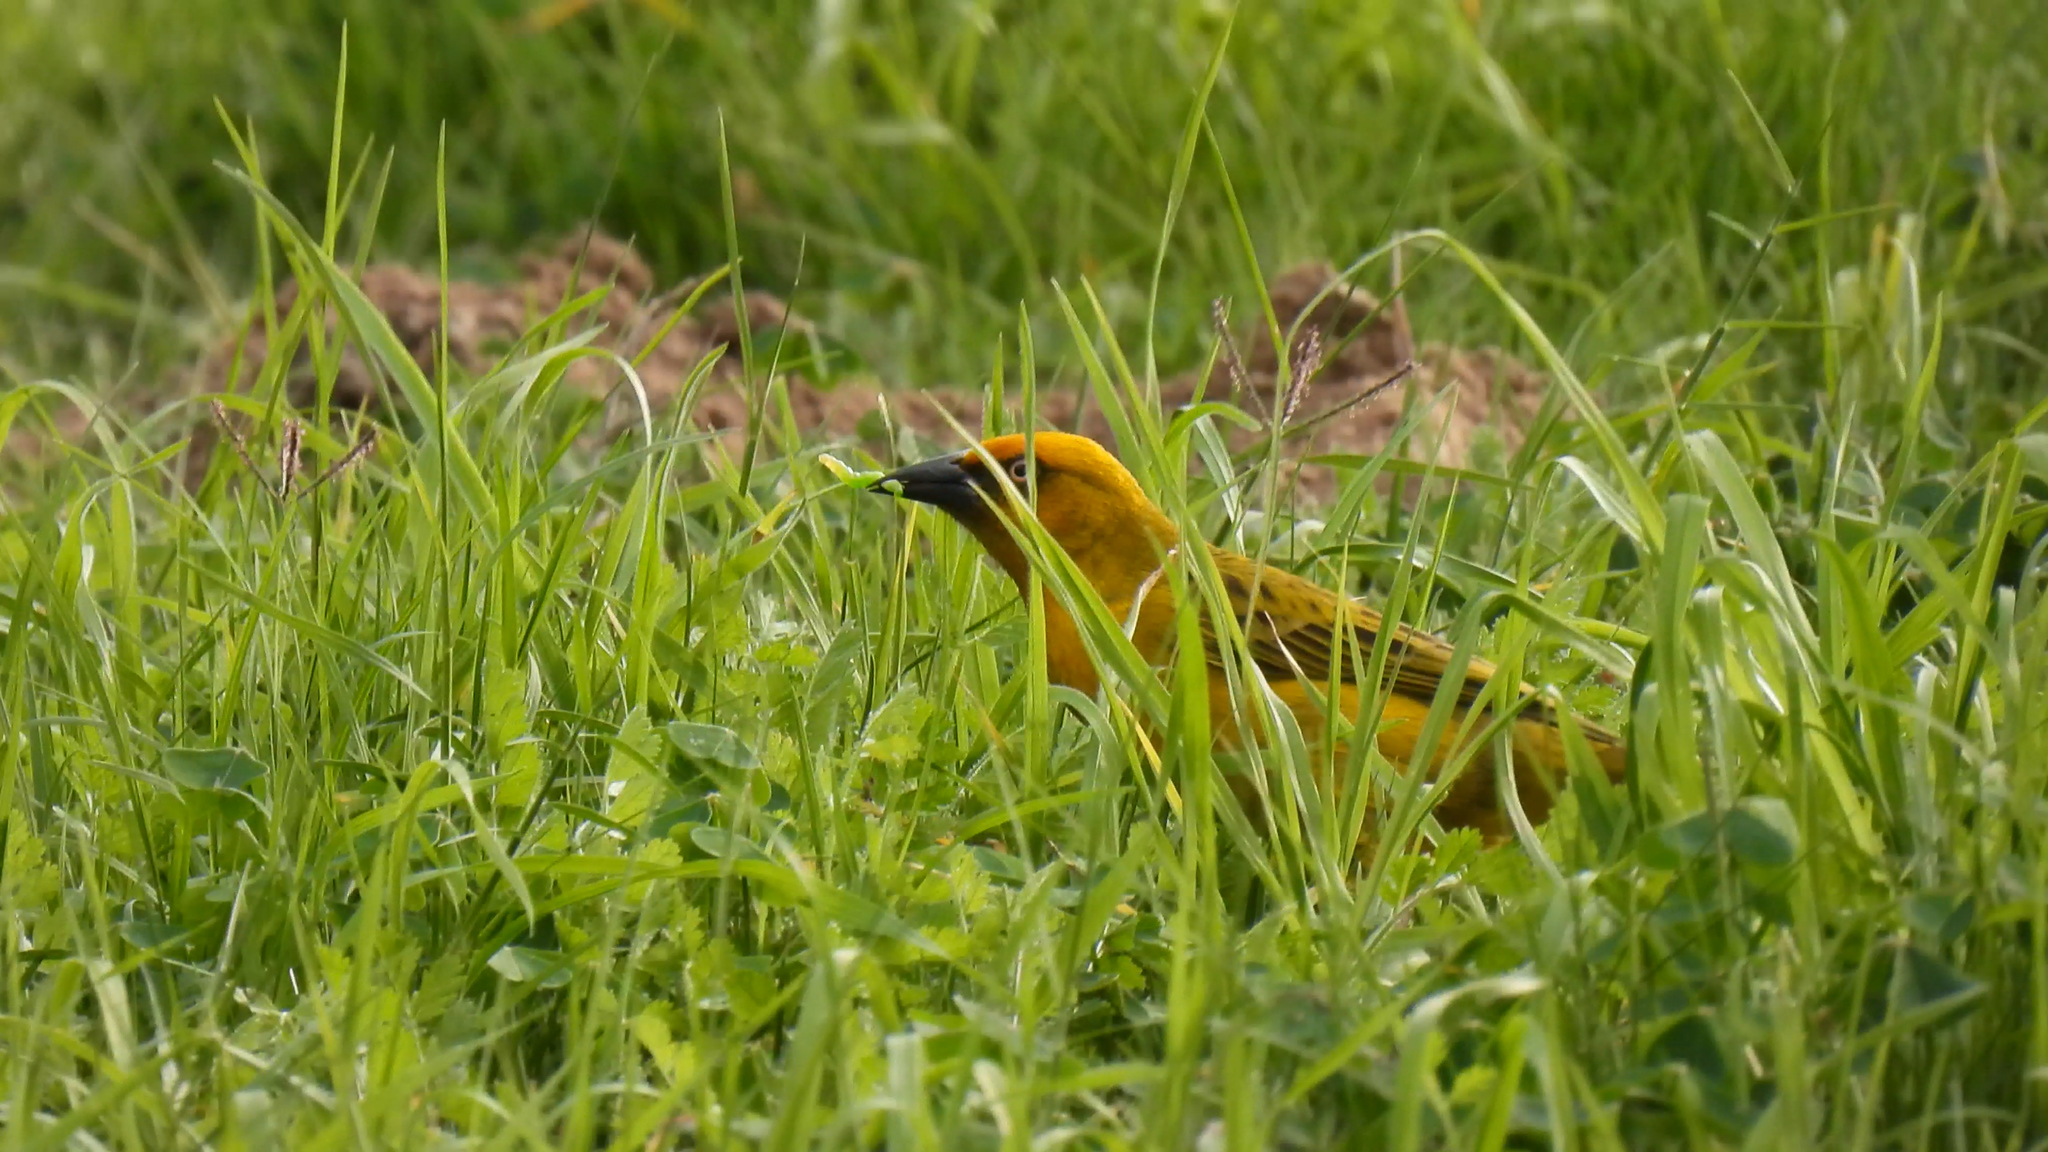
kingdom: Animalia
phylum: Chordata
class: Aves
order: Passeriformes
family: Ploceidae
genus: Ploceus
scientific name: Ploceus capensis
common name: Cape weaver
